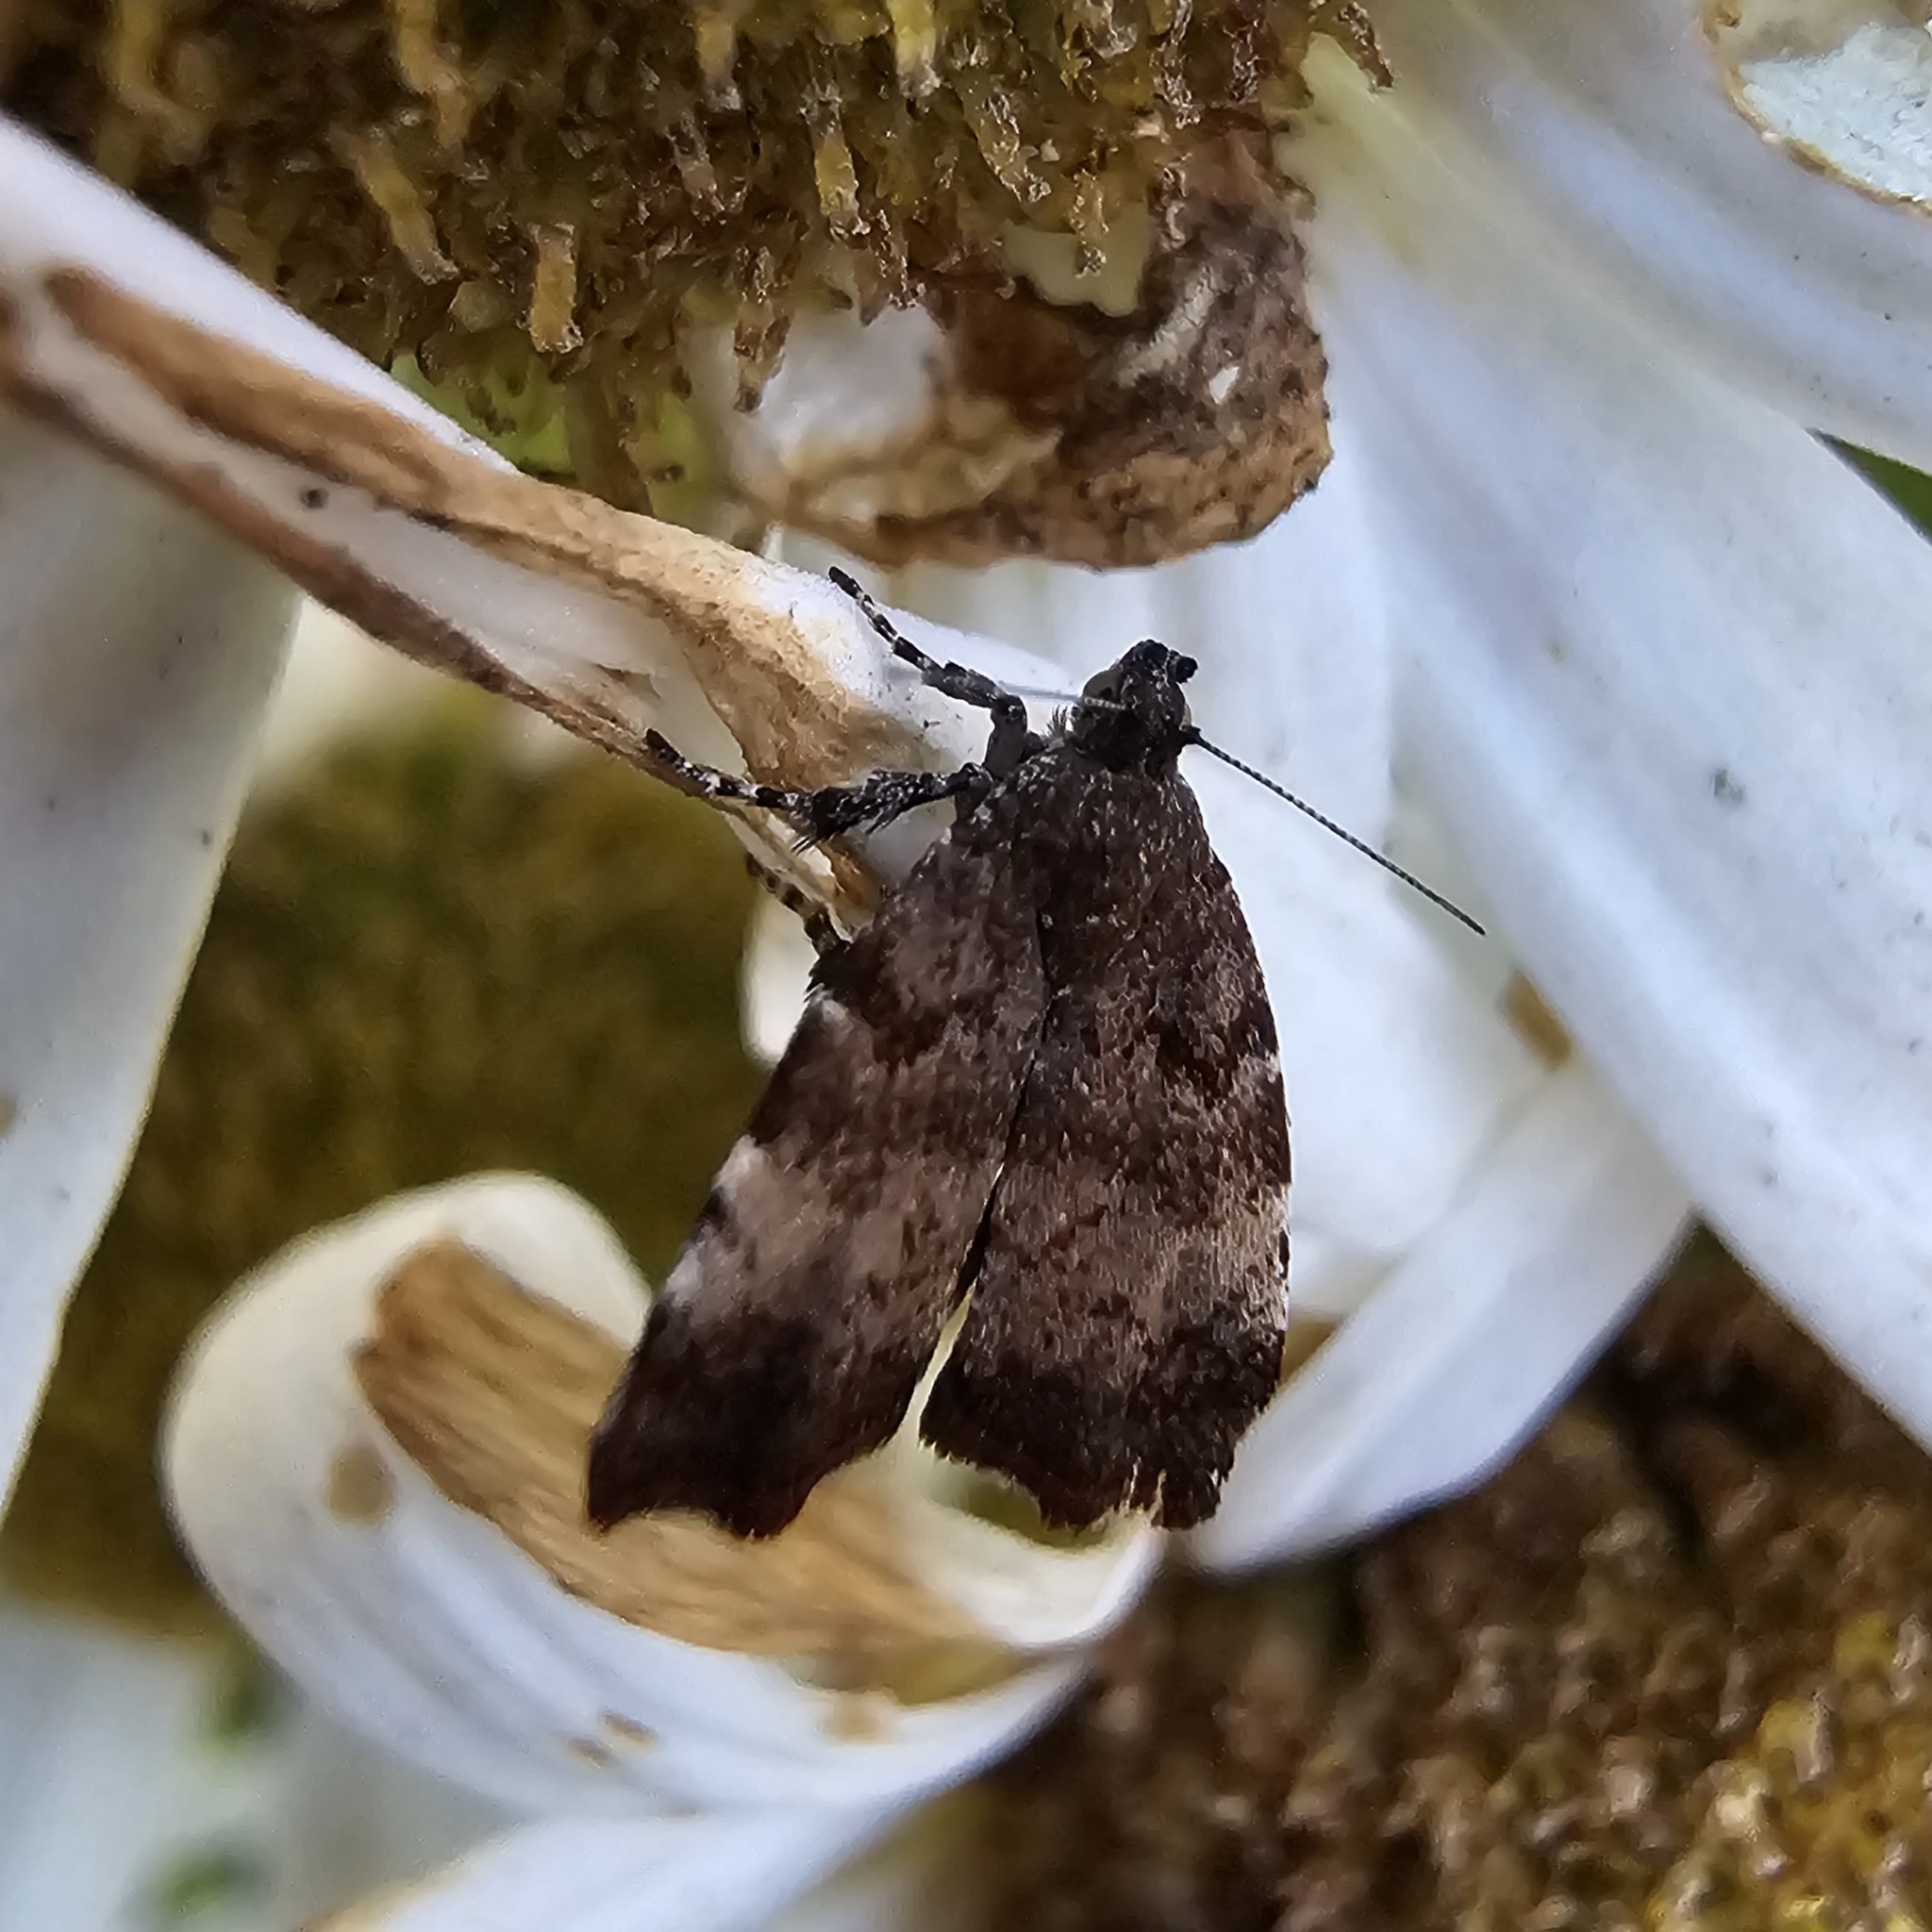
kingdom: Animalia
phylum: Arthropoda
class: Insecta
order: Lepidoptera
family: Choreutidae
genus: Choreutis
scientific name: Choreutis pariana
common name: Apple leaf skeletoniser
